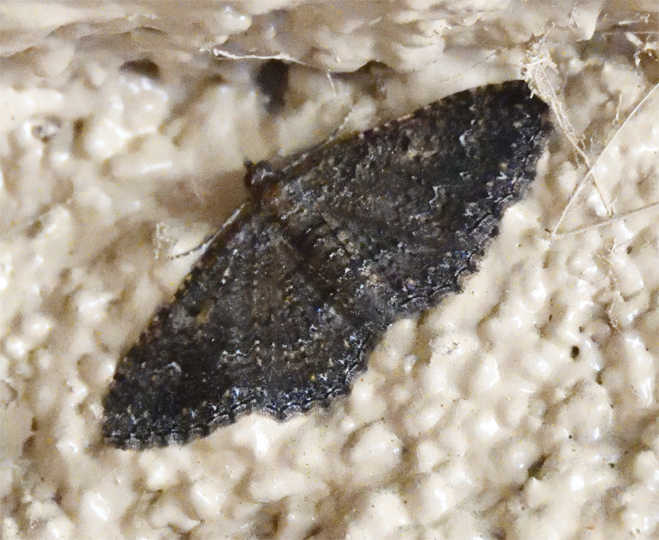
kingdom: Animalia
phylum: Arthropoda
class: Insecta
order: Lepidoptera
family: Geometridae
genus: Disclisioprocta
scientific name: Disclisioprocta stellata
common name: Somber carpet
